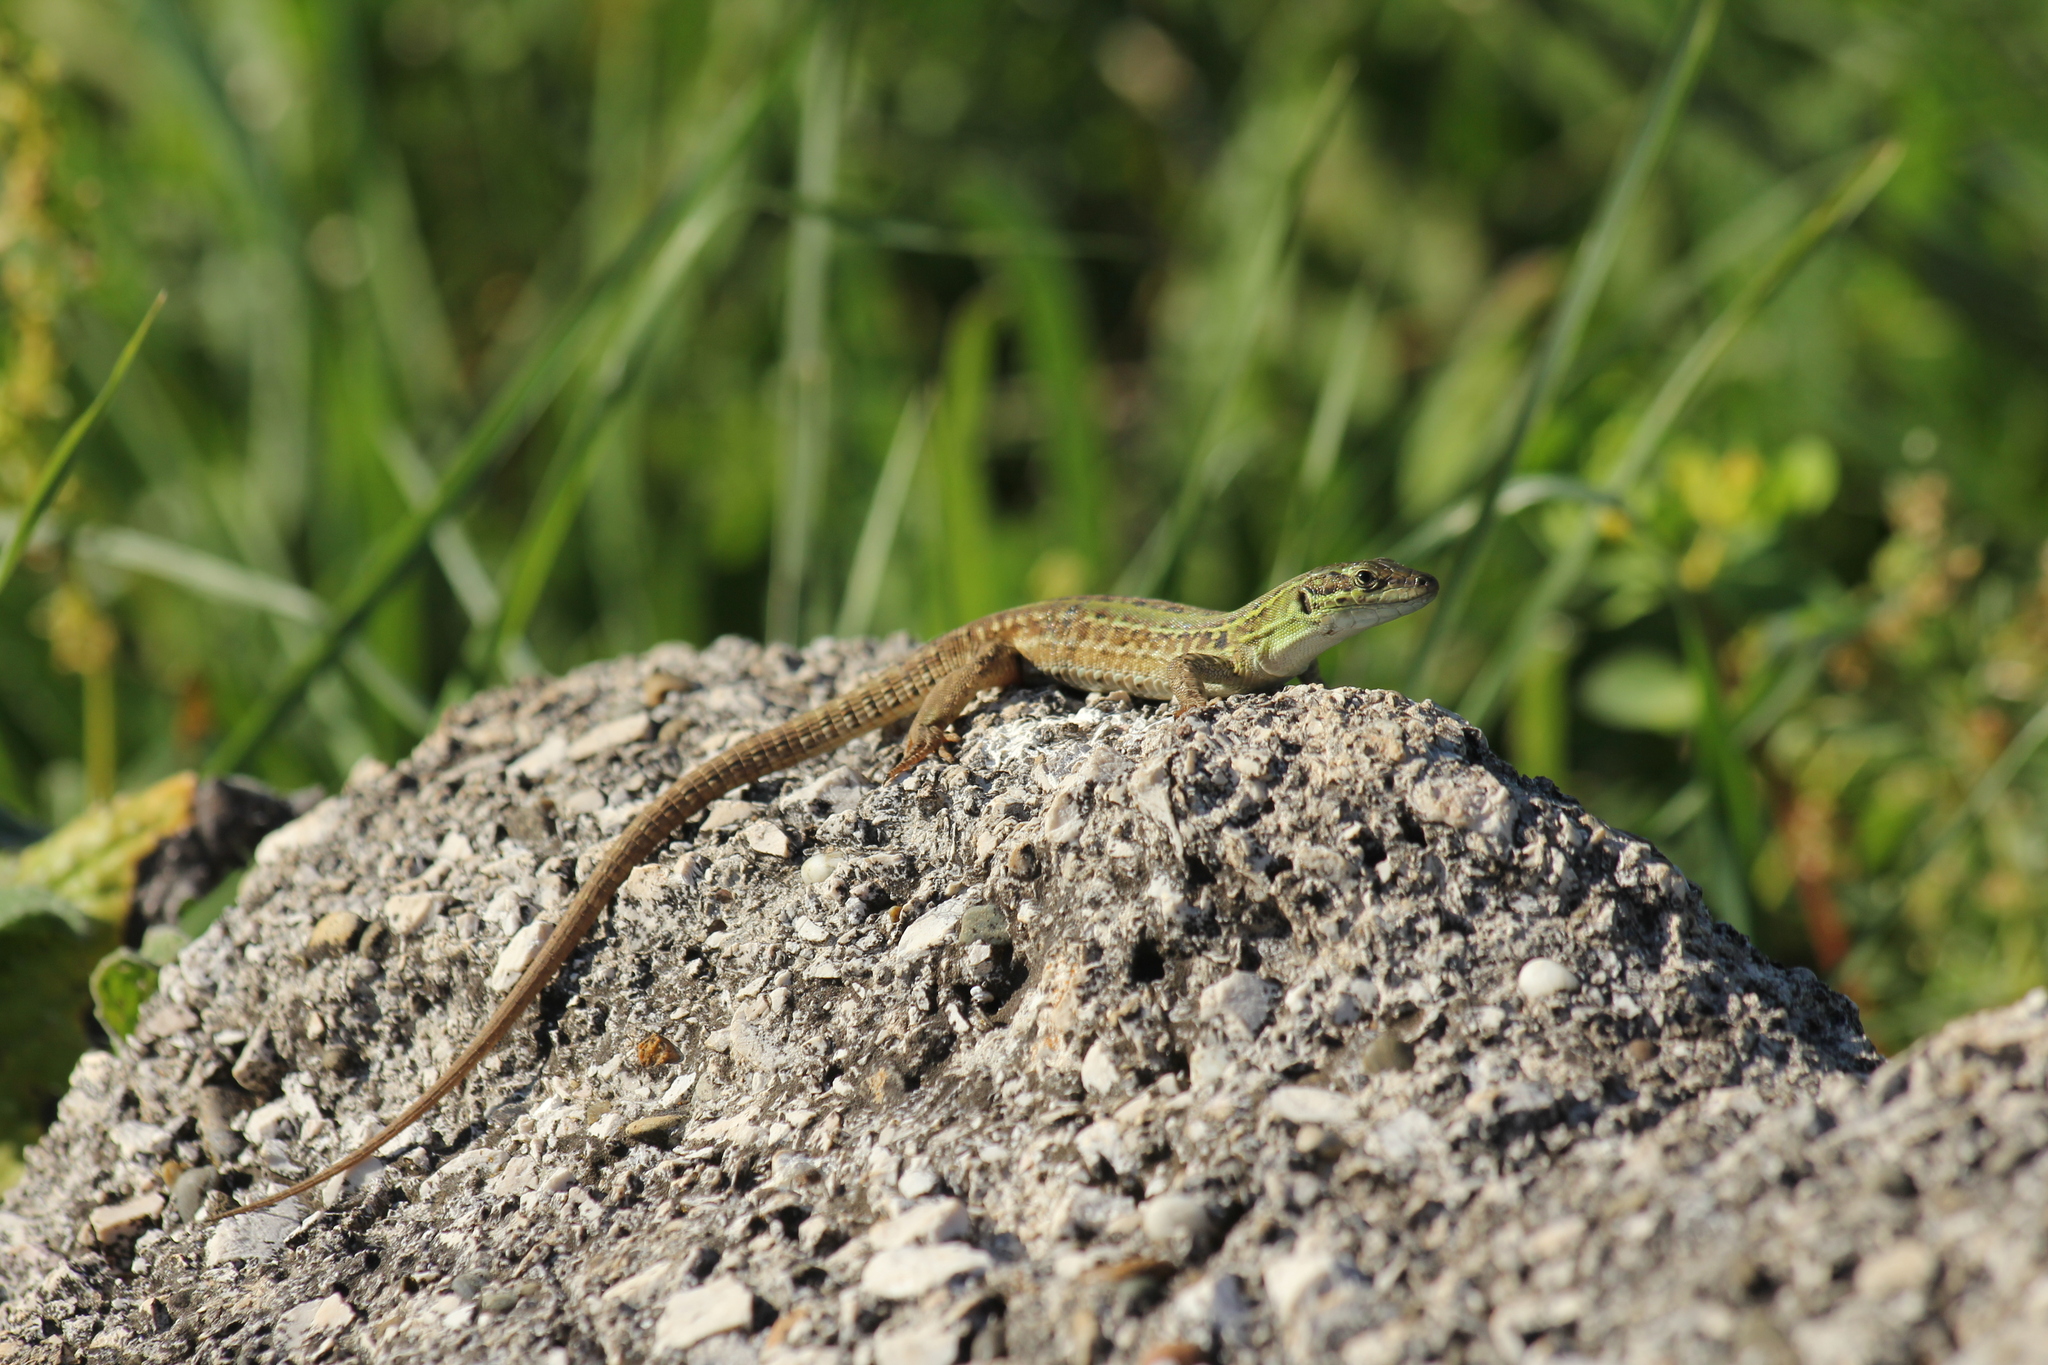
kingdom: Animalia
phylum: Chordata
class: Squamata
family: Lacertidae
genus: Podarcis
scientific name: Podarcis siculus
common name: Italian wall lizard
